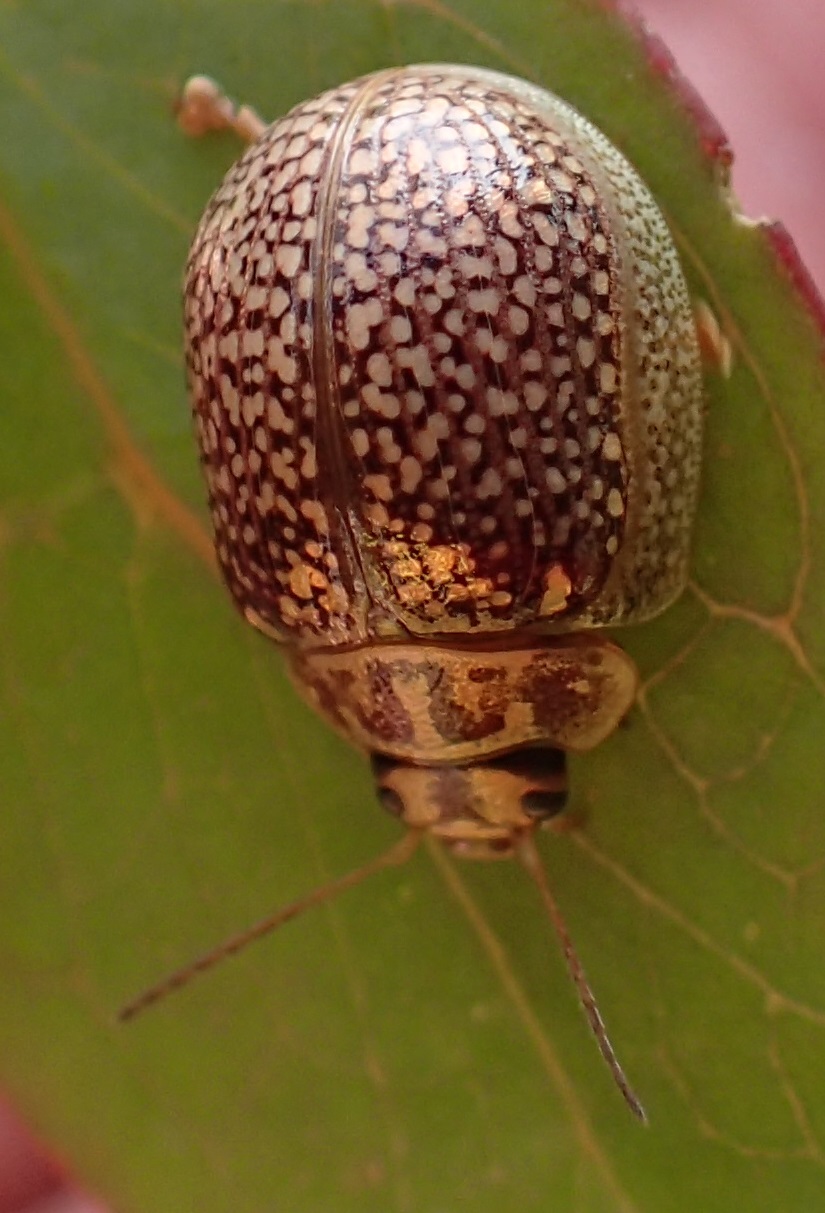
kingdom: Animalia
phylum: Arthropoda
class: Insecta
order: Coleoptera
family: Chrysomelidae
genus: Paropsisterna
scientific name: Paropsisterna decolorata
